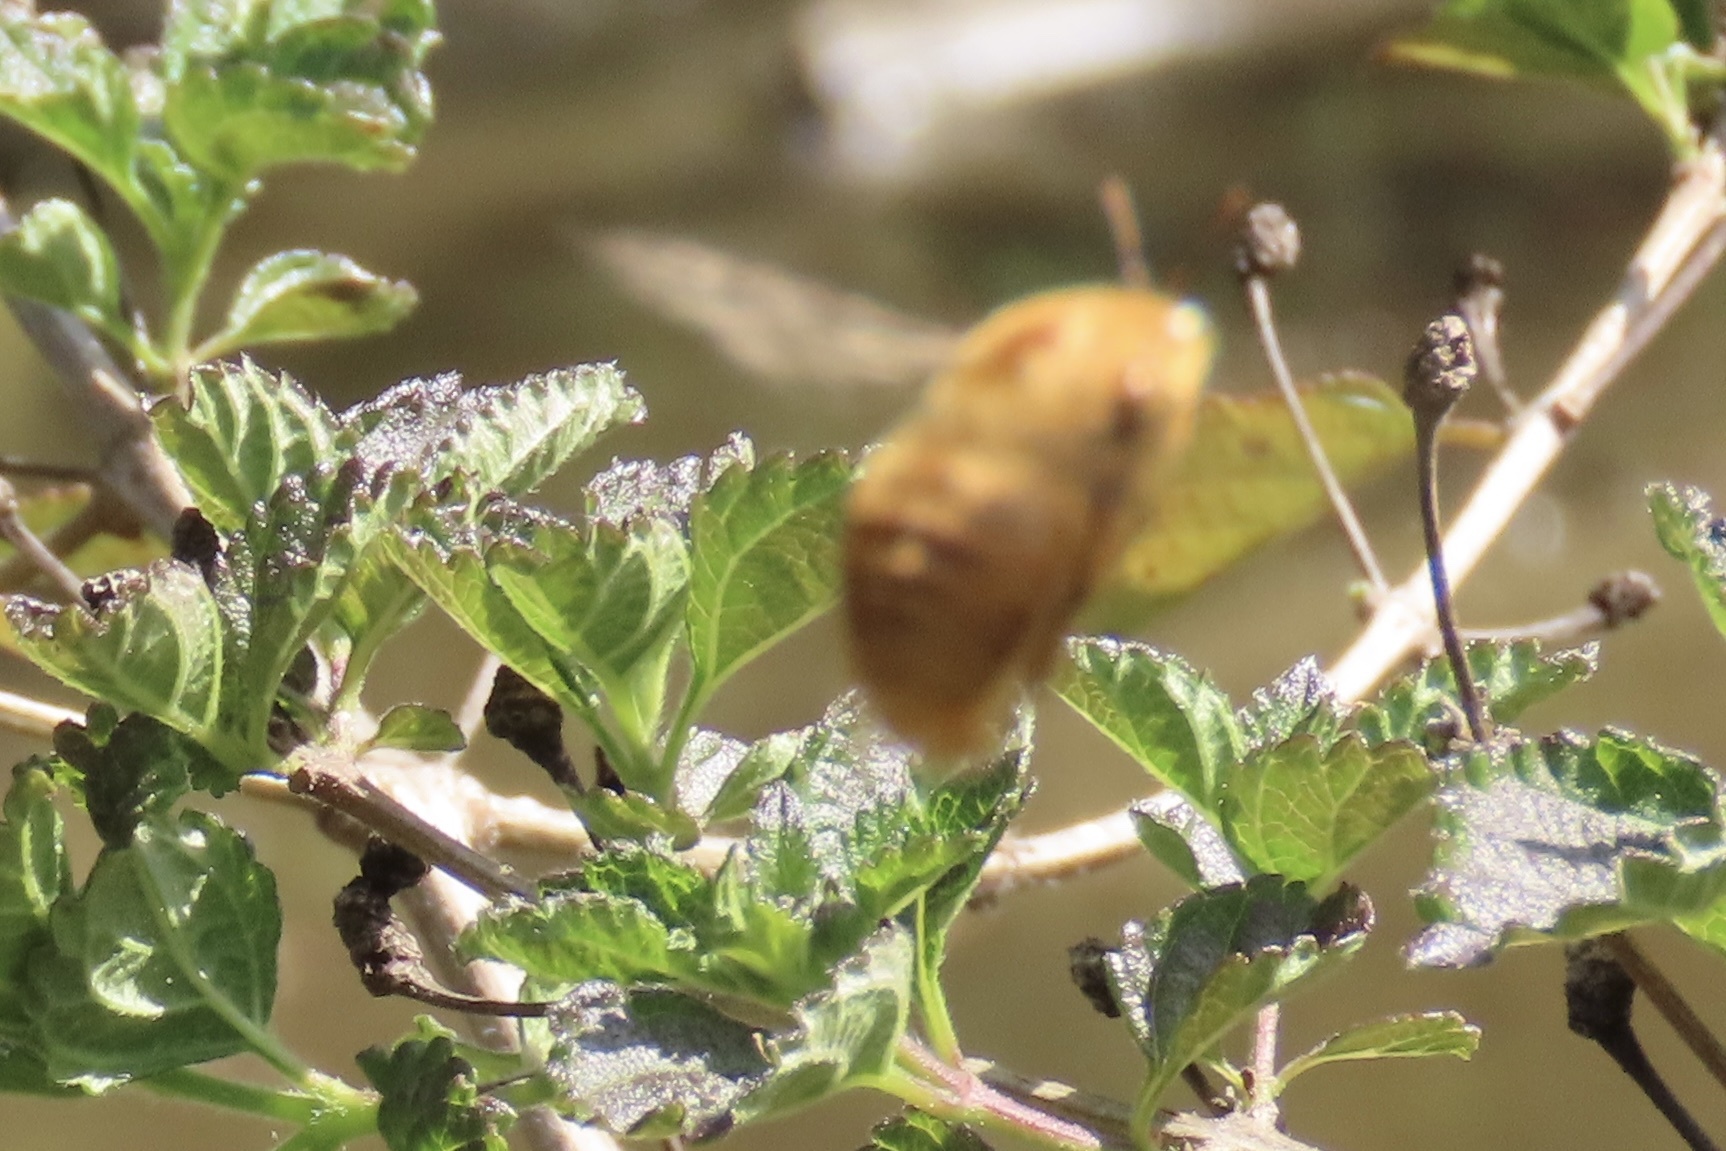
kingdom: Animalia
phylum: Arthropoda
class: Insecta
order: Hymenoptera
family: Apidae
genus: Xylocopa
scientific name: Xylocopa sonorina
